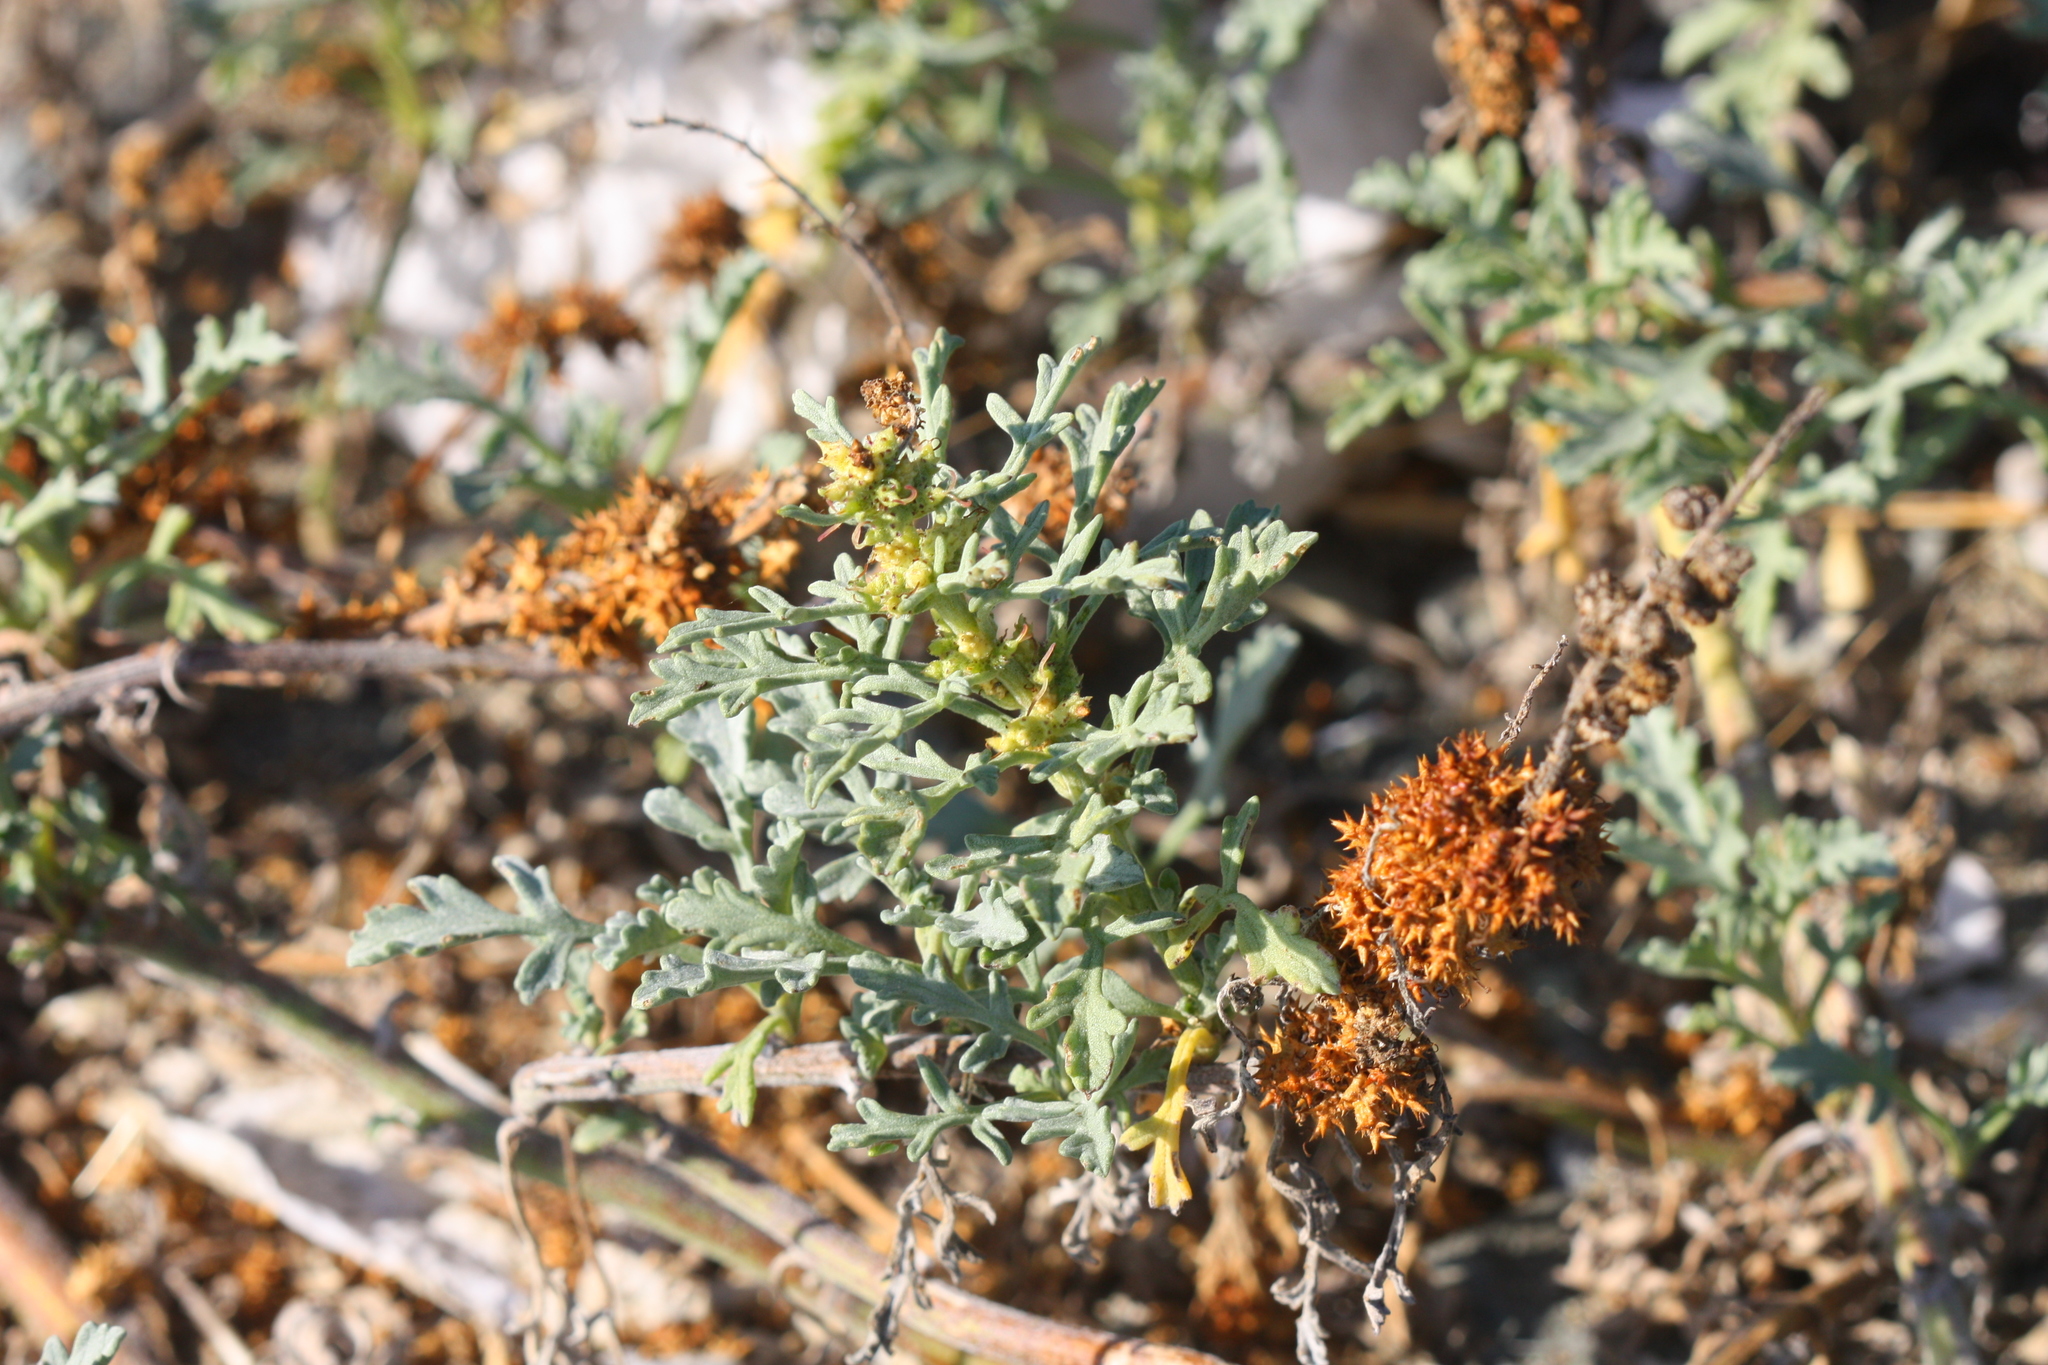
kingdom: Plantae
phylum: Tracheophyta
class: Magnoliopsida
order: Asterales
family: Asteraceae
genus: Ambrosia
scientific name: Ambrosia chamissonis
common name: Beachbur
